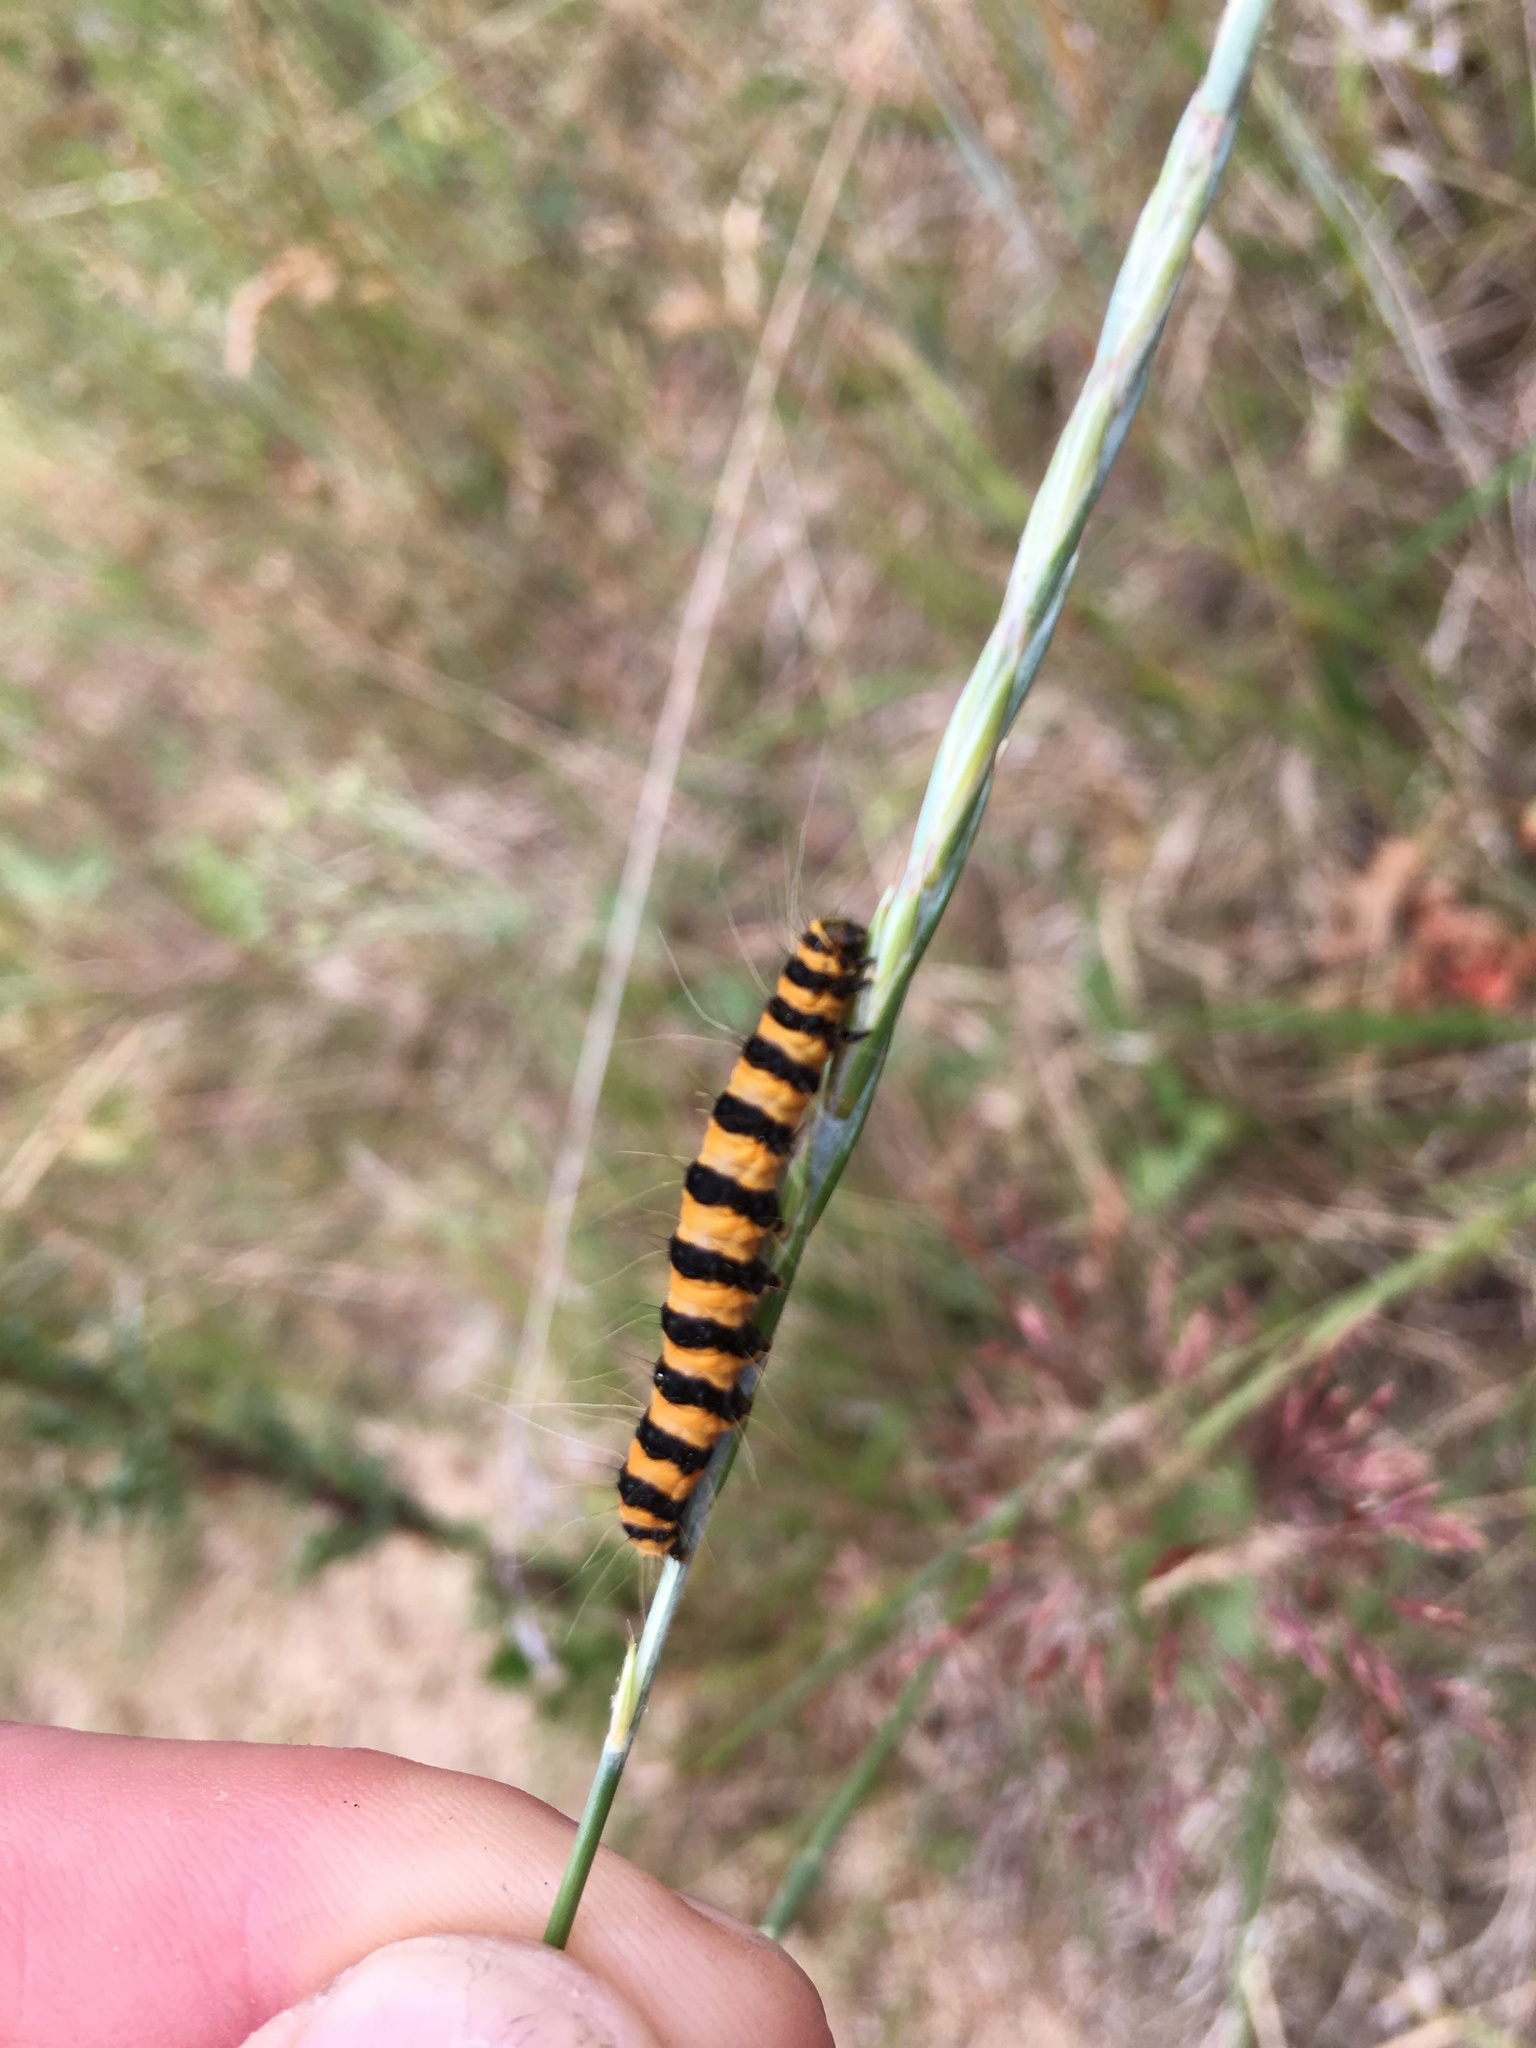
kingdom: Animalia
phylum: Arthropoda
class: Insecta
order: Lepidoptera
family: Erebidae
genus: Tyria
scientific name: Tyria jacobaeae
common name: Cinnabar
